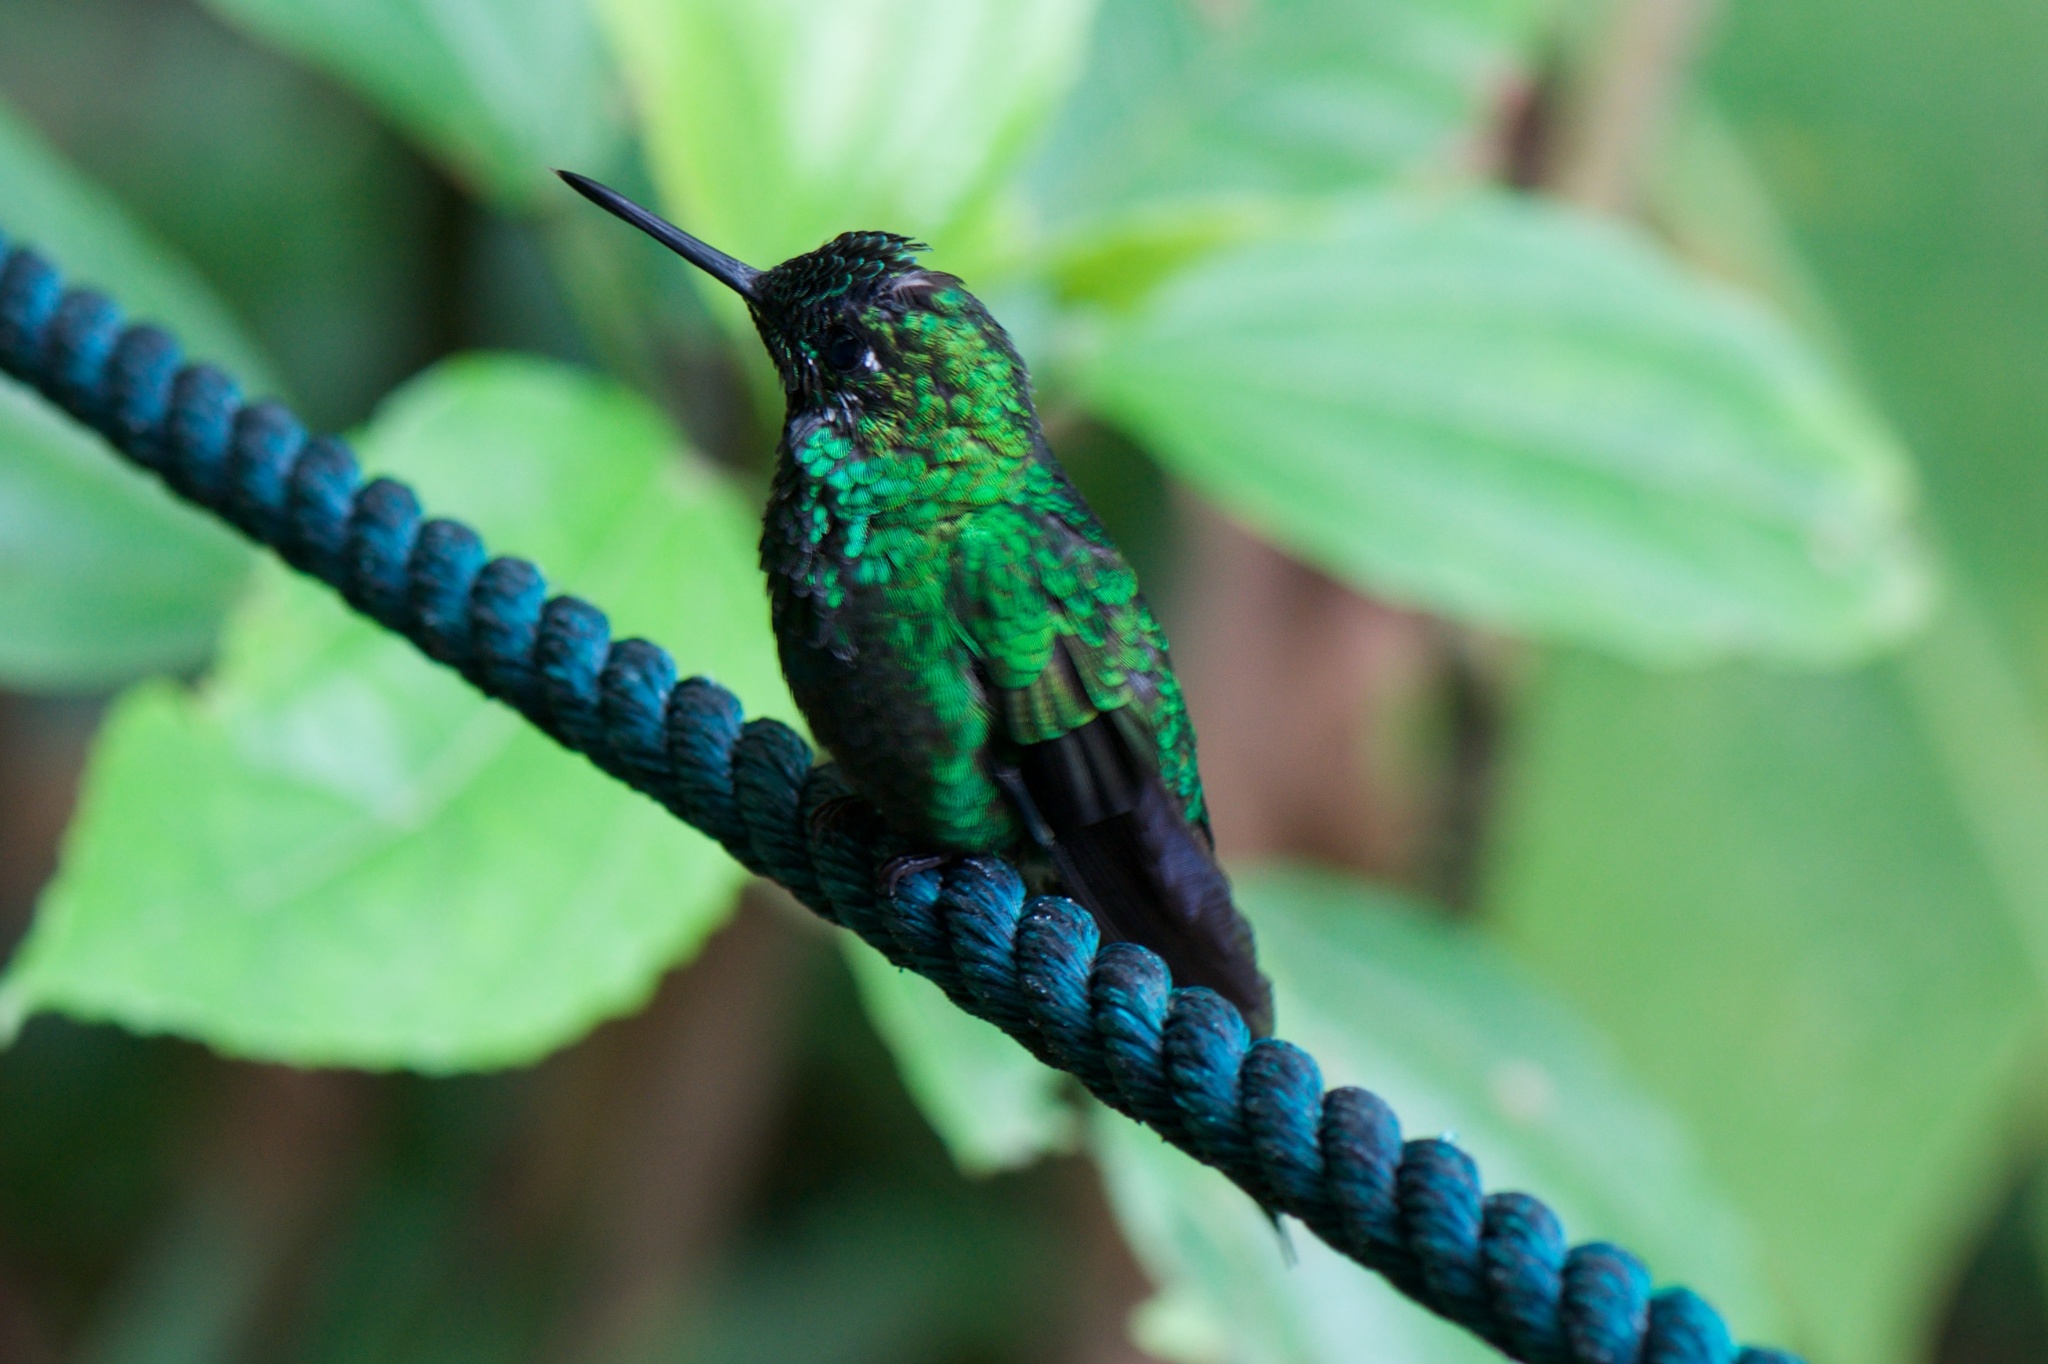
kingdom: Animalia
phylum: Chordata
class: Aves
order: Apodiformes
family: Trochilidae
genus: Heliodoxa
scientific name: Heliodoxa jacula
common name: Green-crowned brilliant
